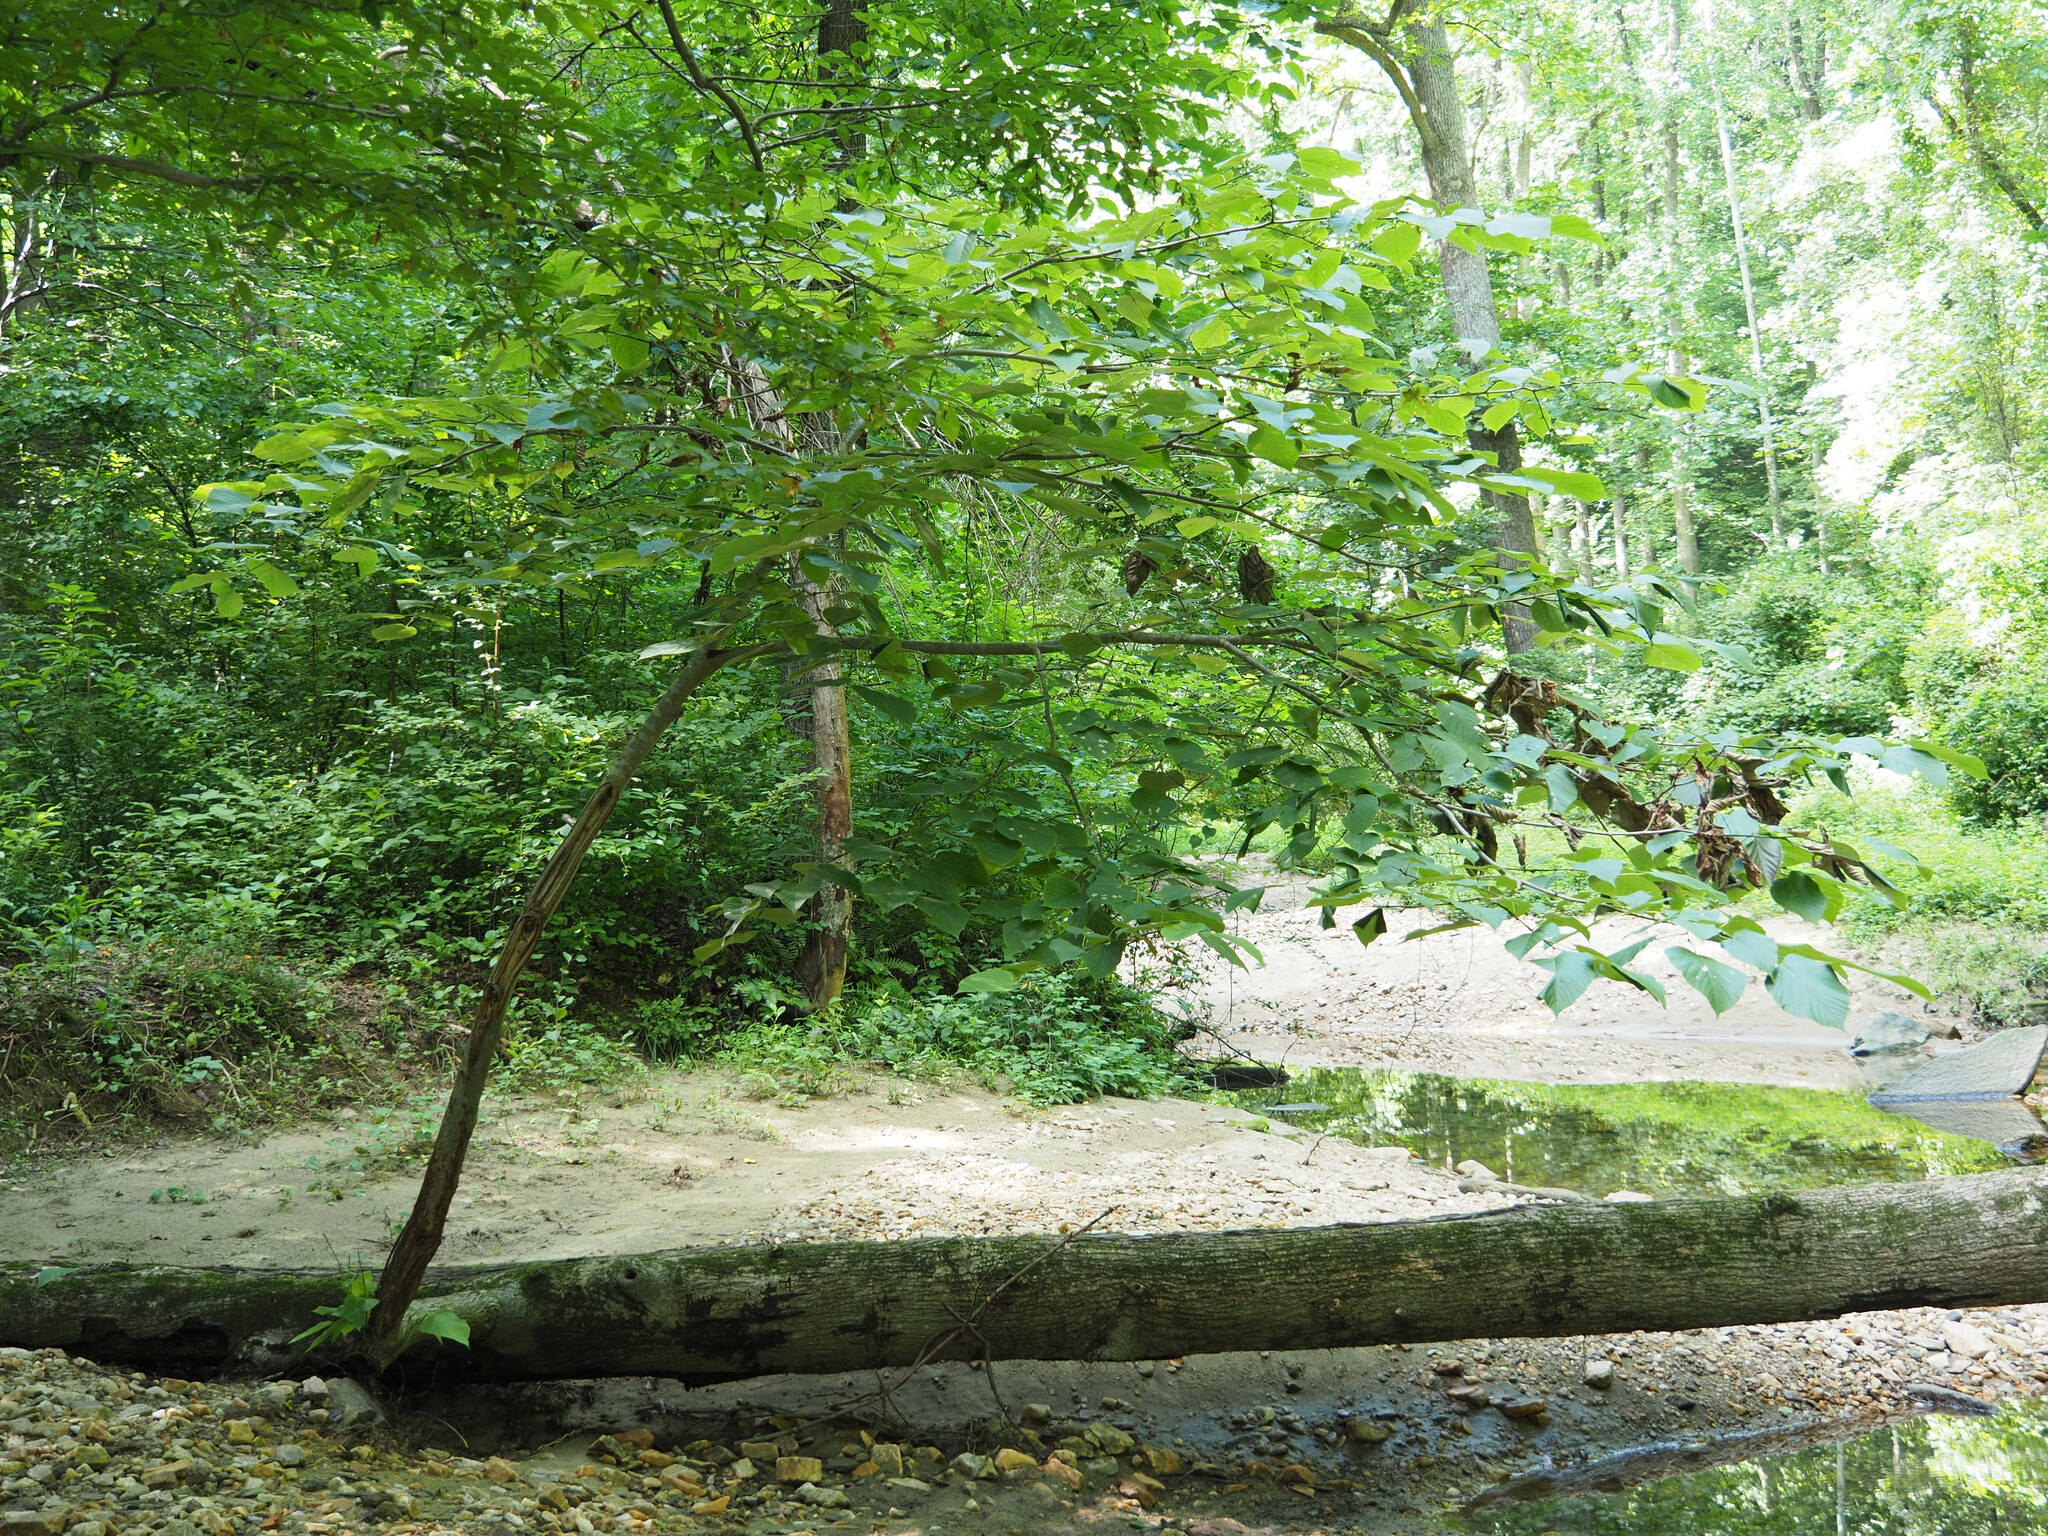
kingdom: Plantae
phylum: Tracheophyta
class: Magnoliopsida
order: Malvales
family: Malvaceae
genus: Tilia
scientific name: Tilia americana
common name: Basswood
